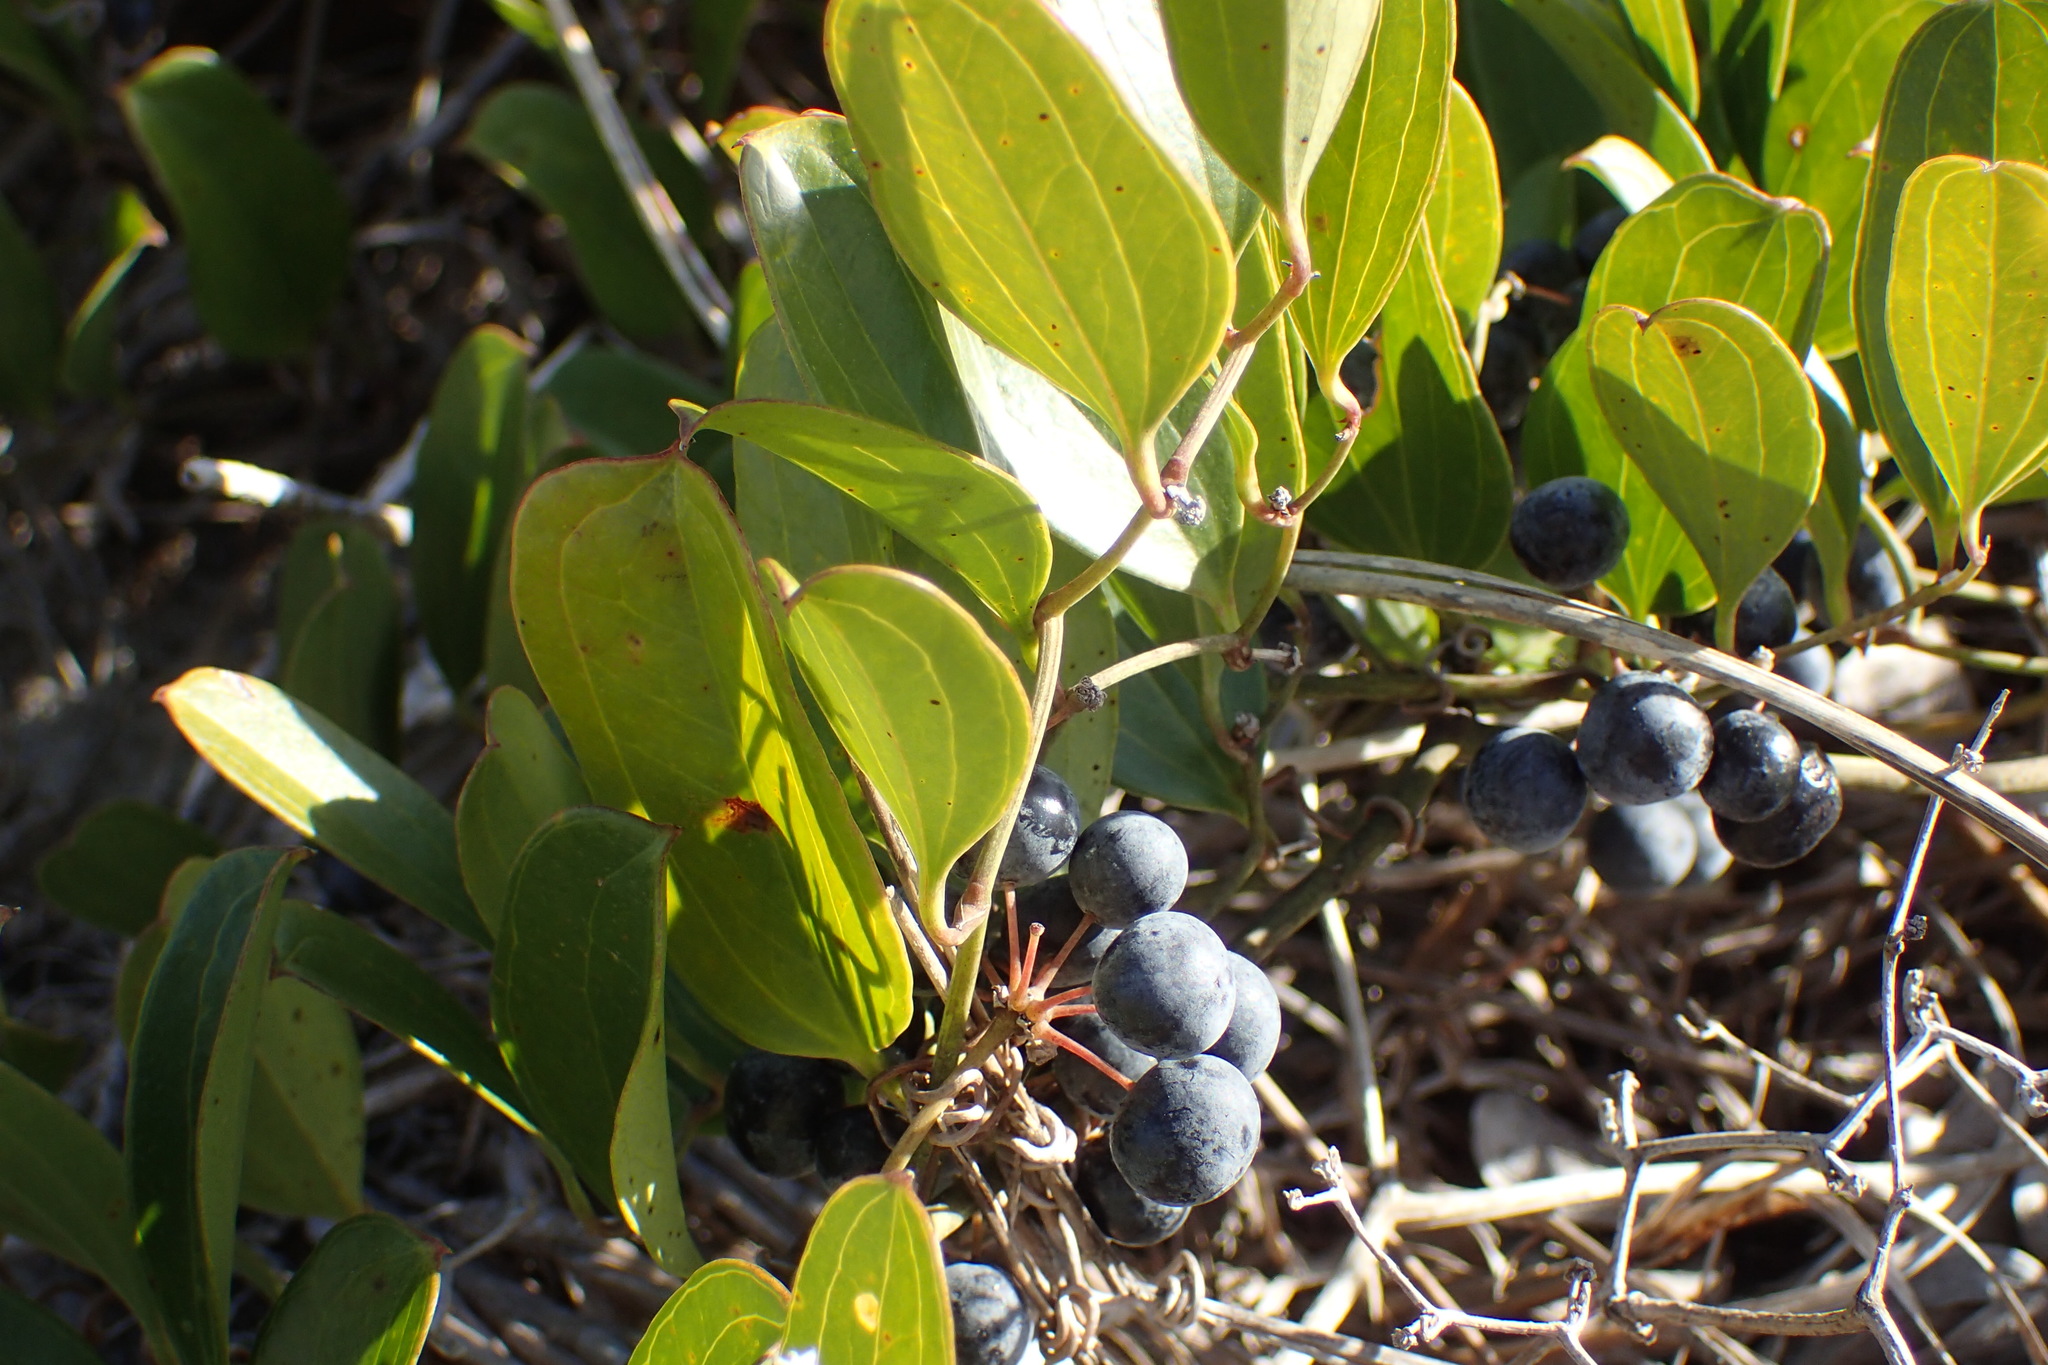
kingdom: Plantae
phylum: Tracheophyta
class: Liliopsida
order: Liliales
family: Smilacaceae
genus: Smilax
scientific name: Smilax auriculata
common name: Wild bamboo
